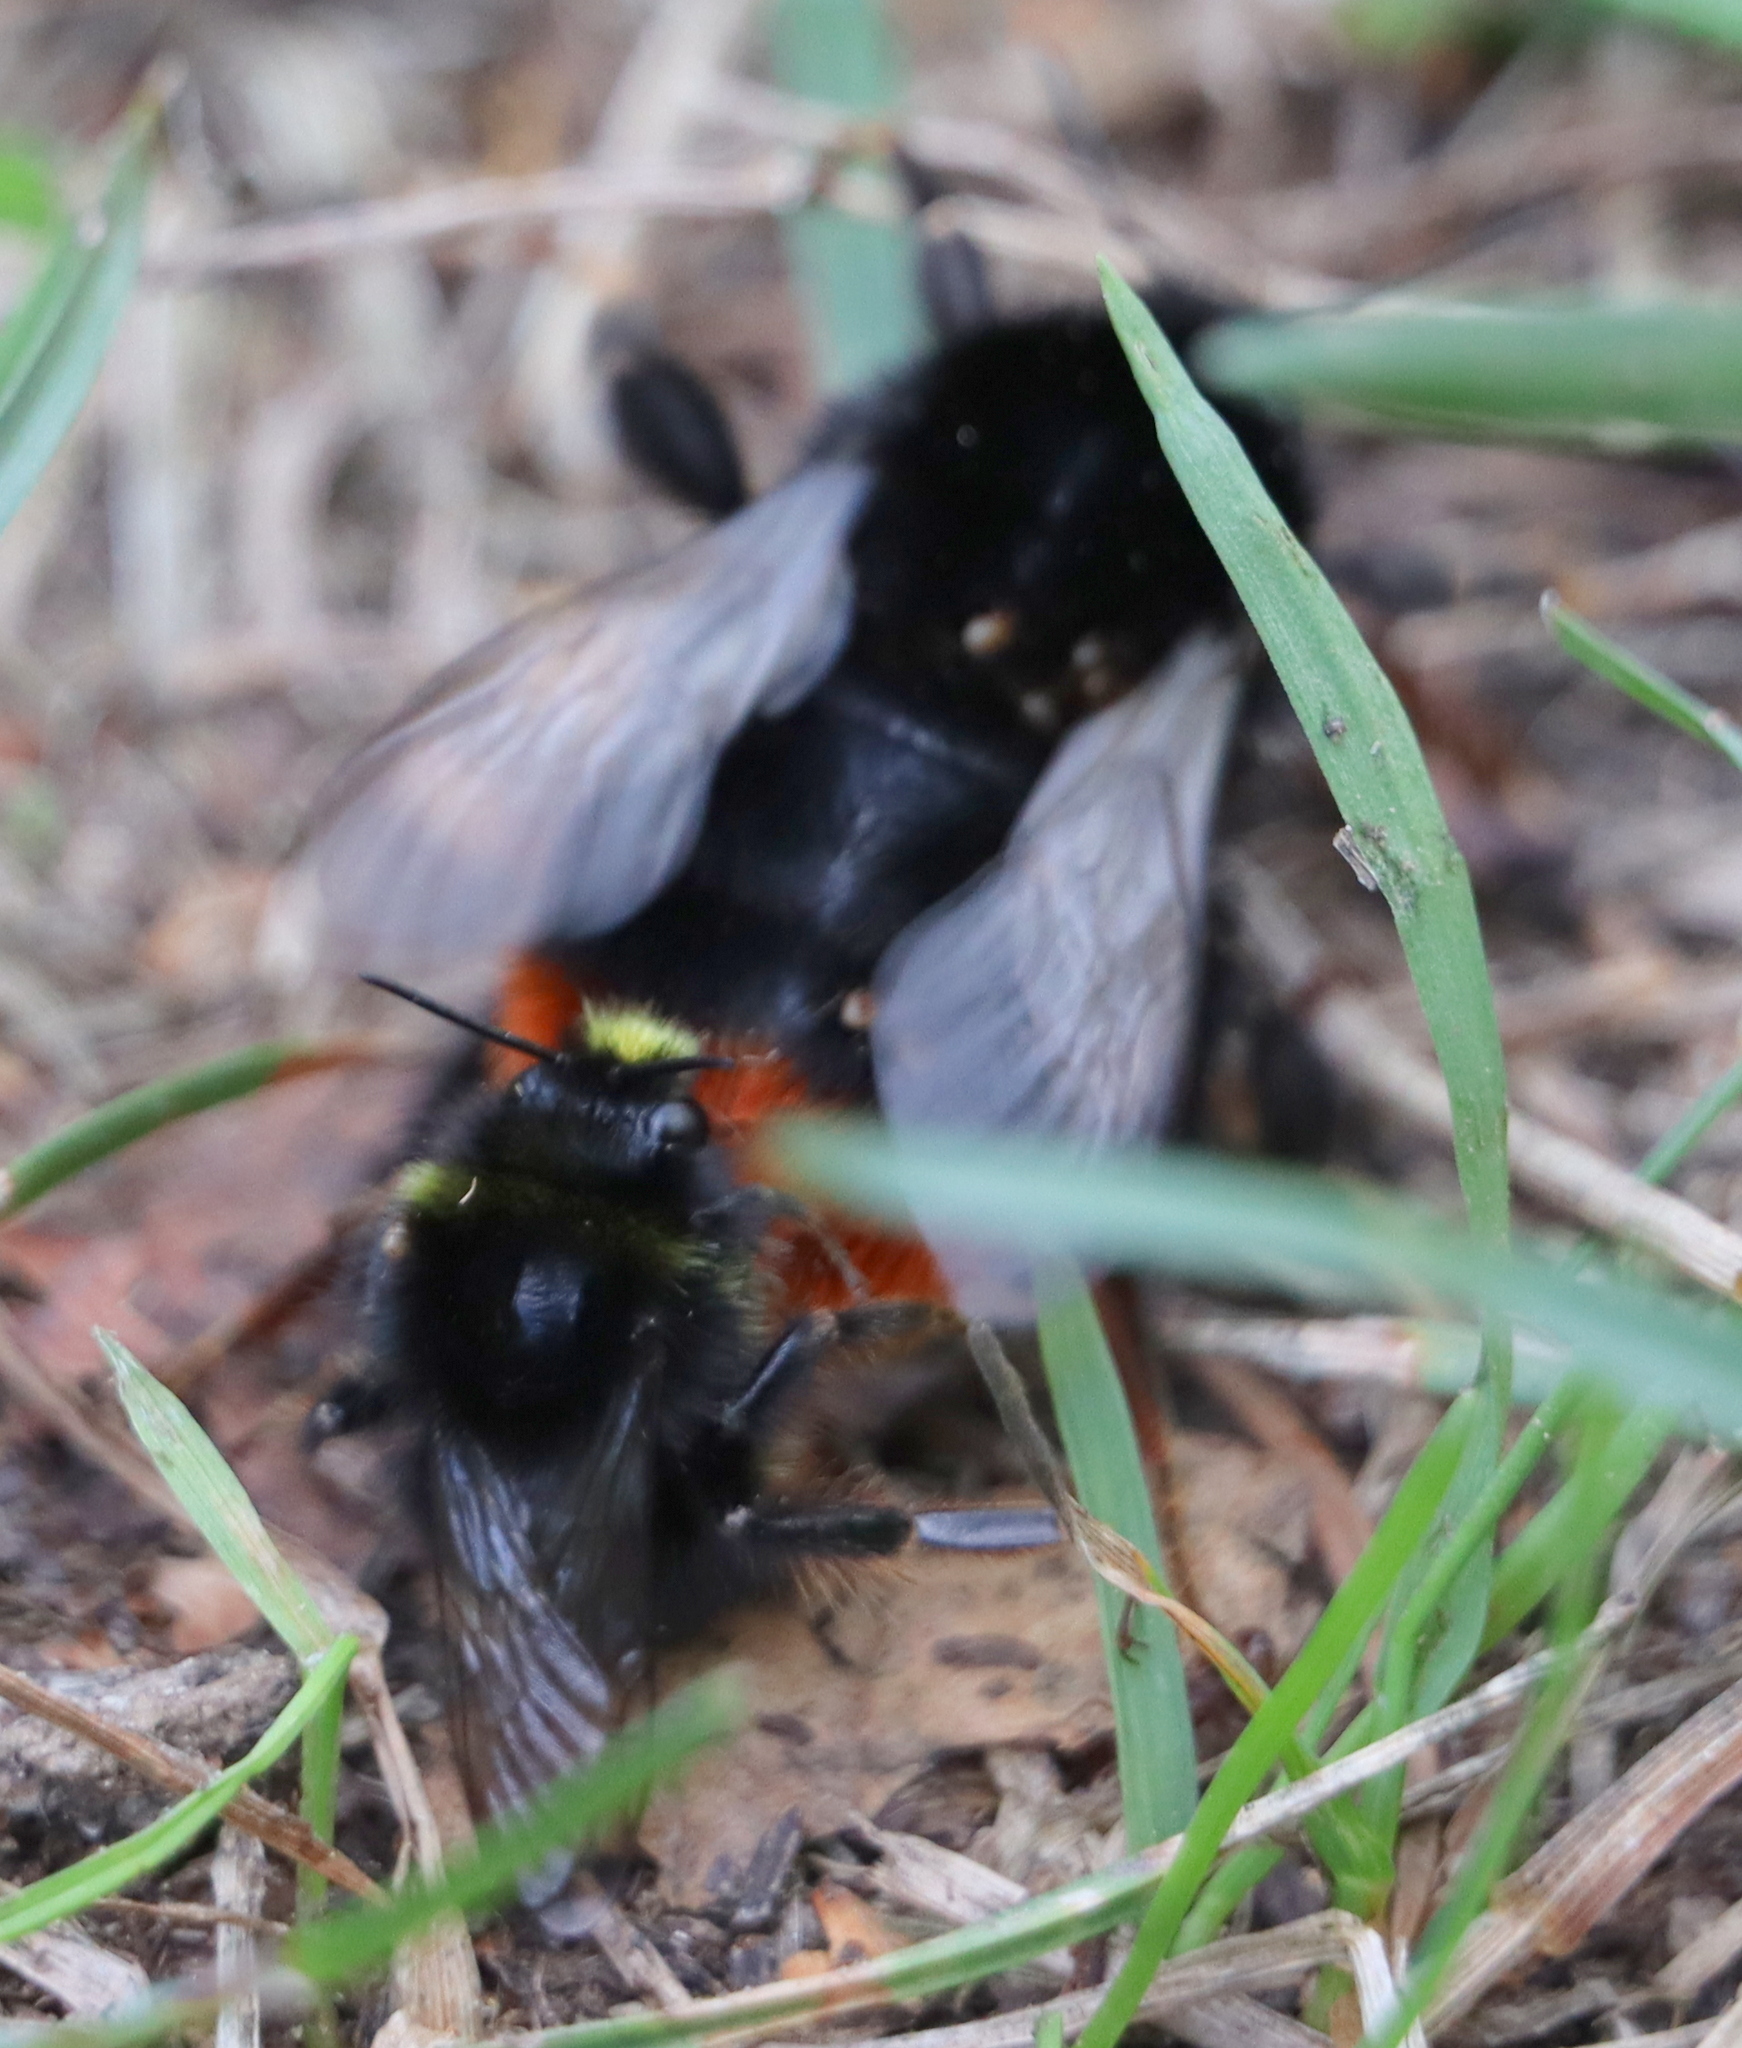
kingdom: Animalia
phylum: Arthropoda
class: Insecta
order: Hymenoptera
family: Apidae
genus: Bombus
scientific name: Bombus lapidarius
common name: Large red-tailed humble-bee
